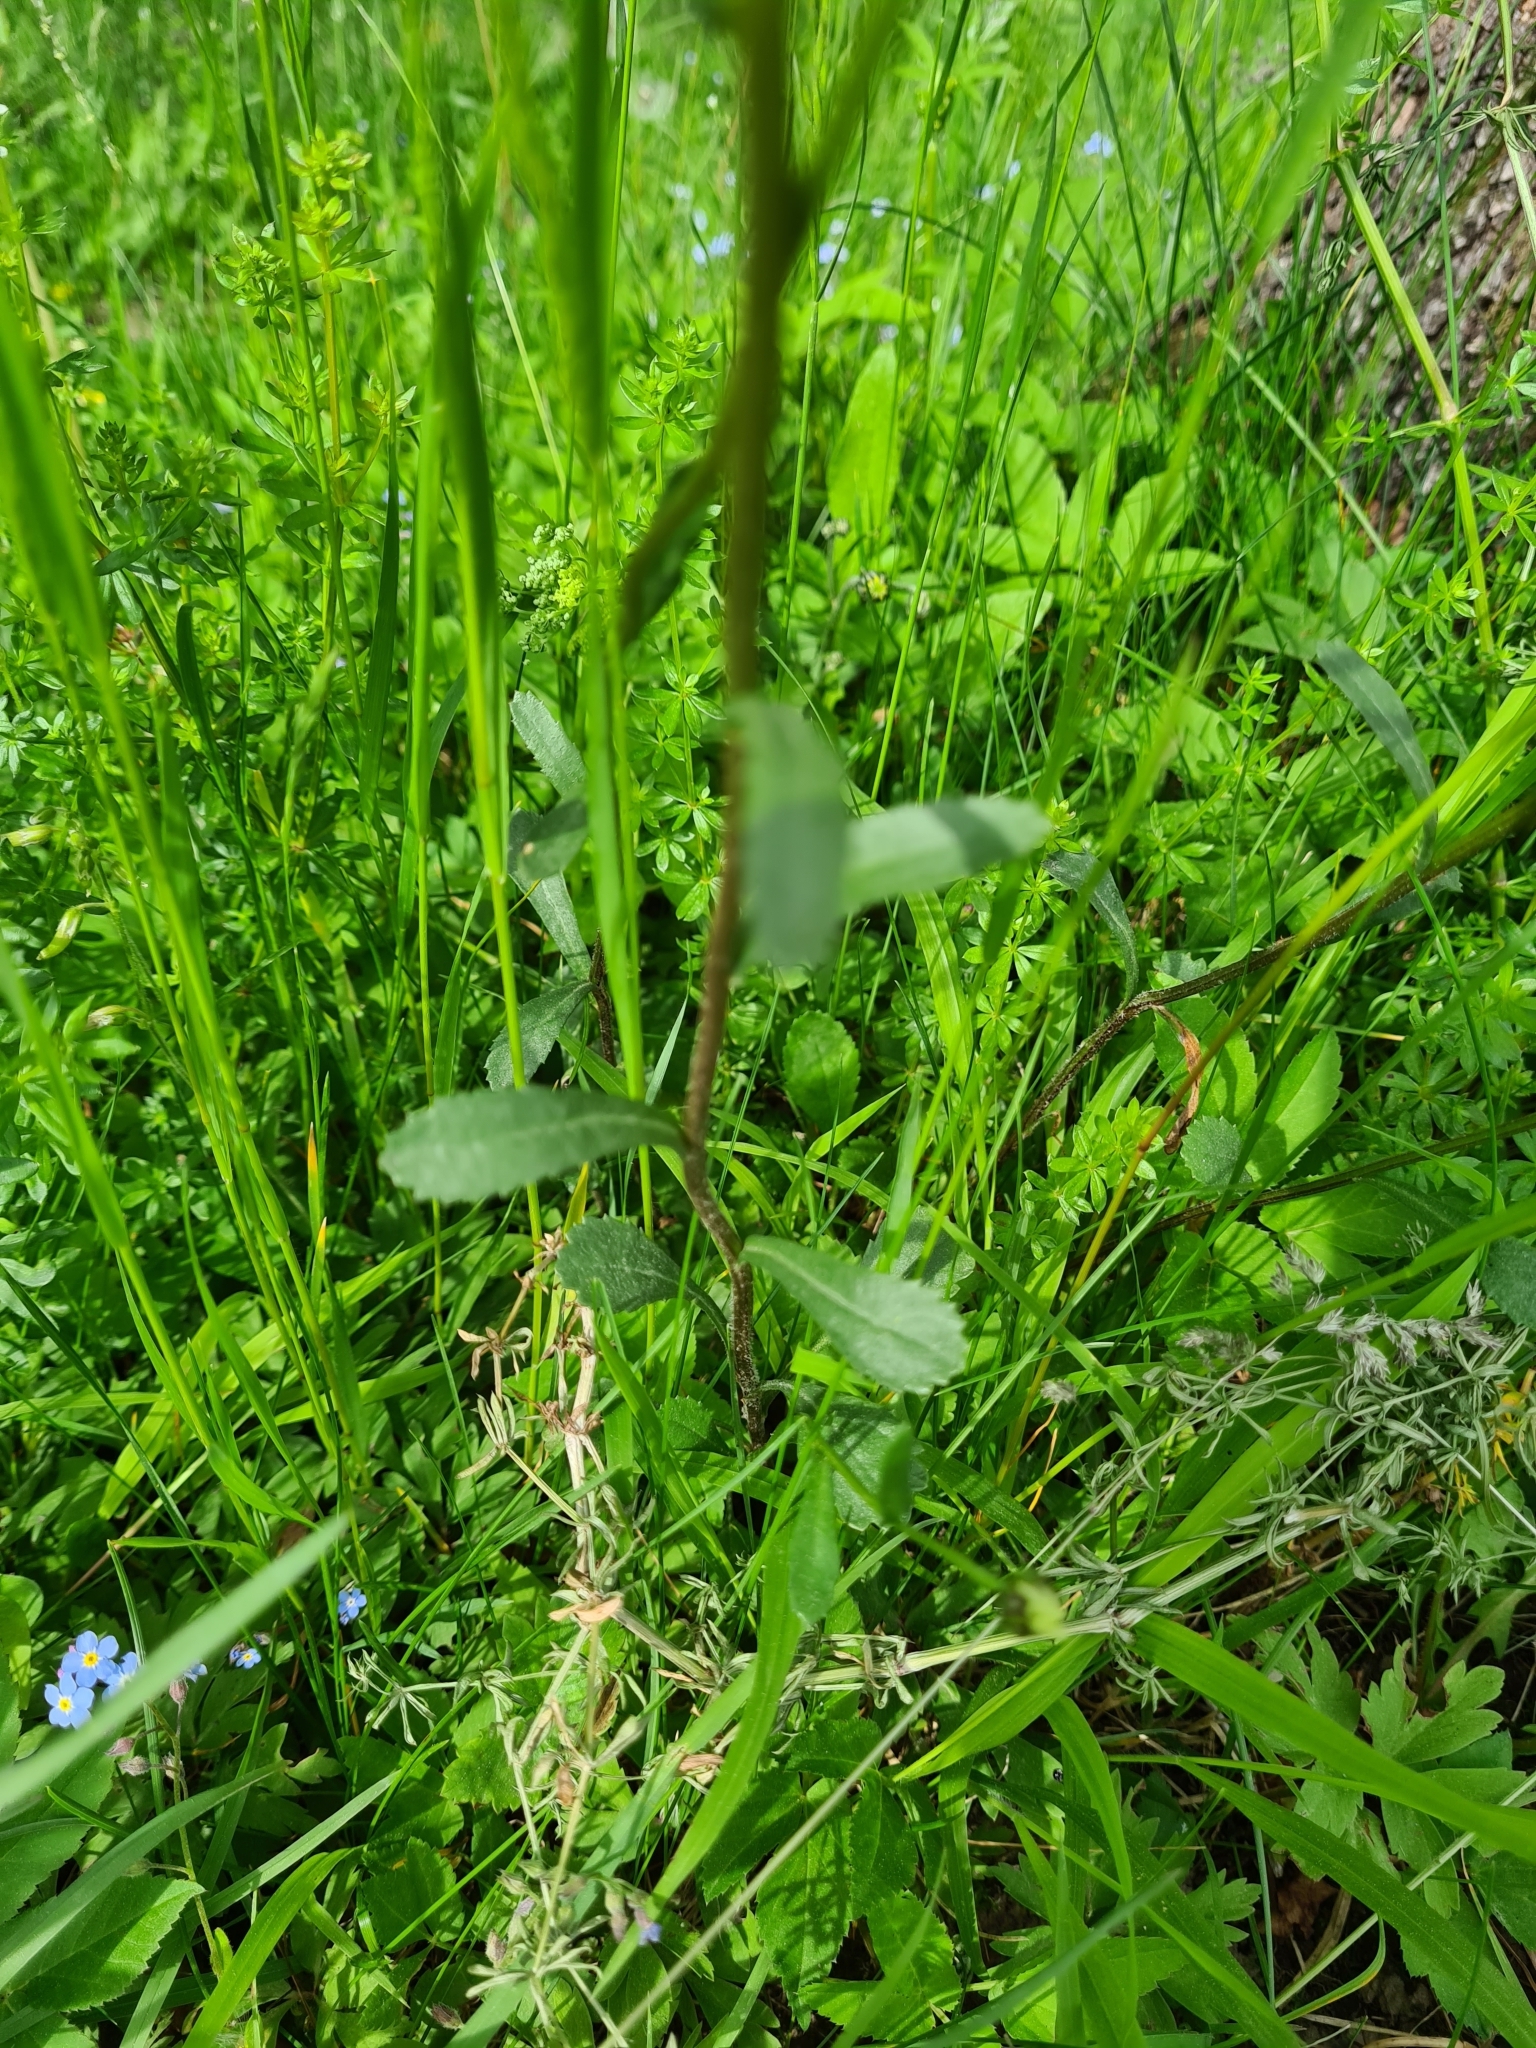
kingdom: Plantae
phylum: Tracheophyta
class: Magnoliopsida
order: Asterales
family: Asteraceae
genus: Leucanthemum
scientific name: Leucanthemum vulgare
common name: Oxeye daisy
